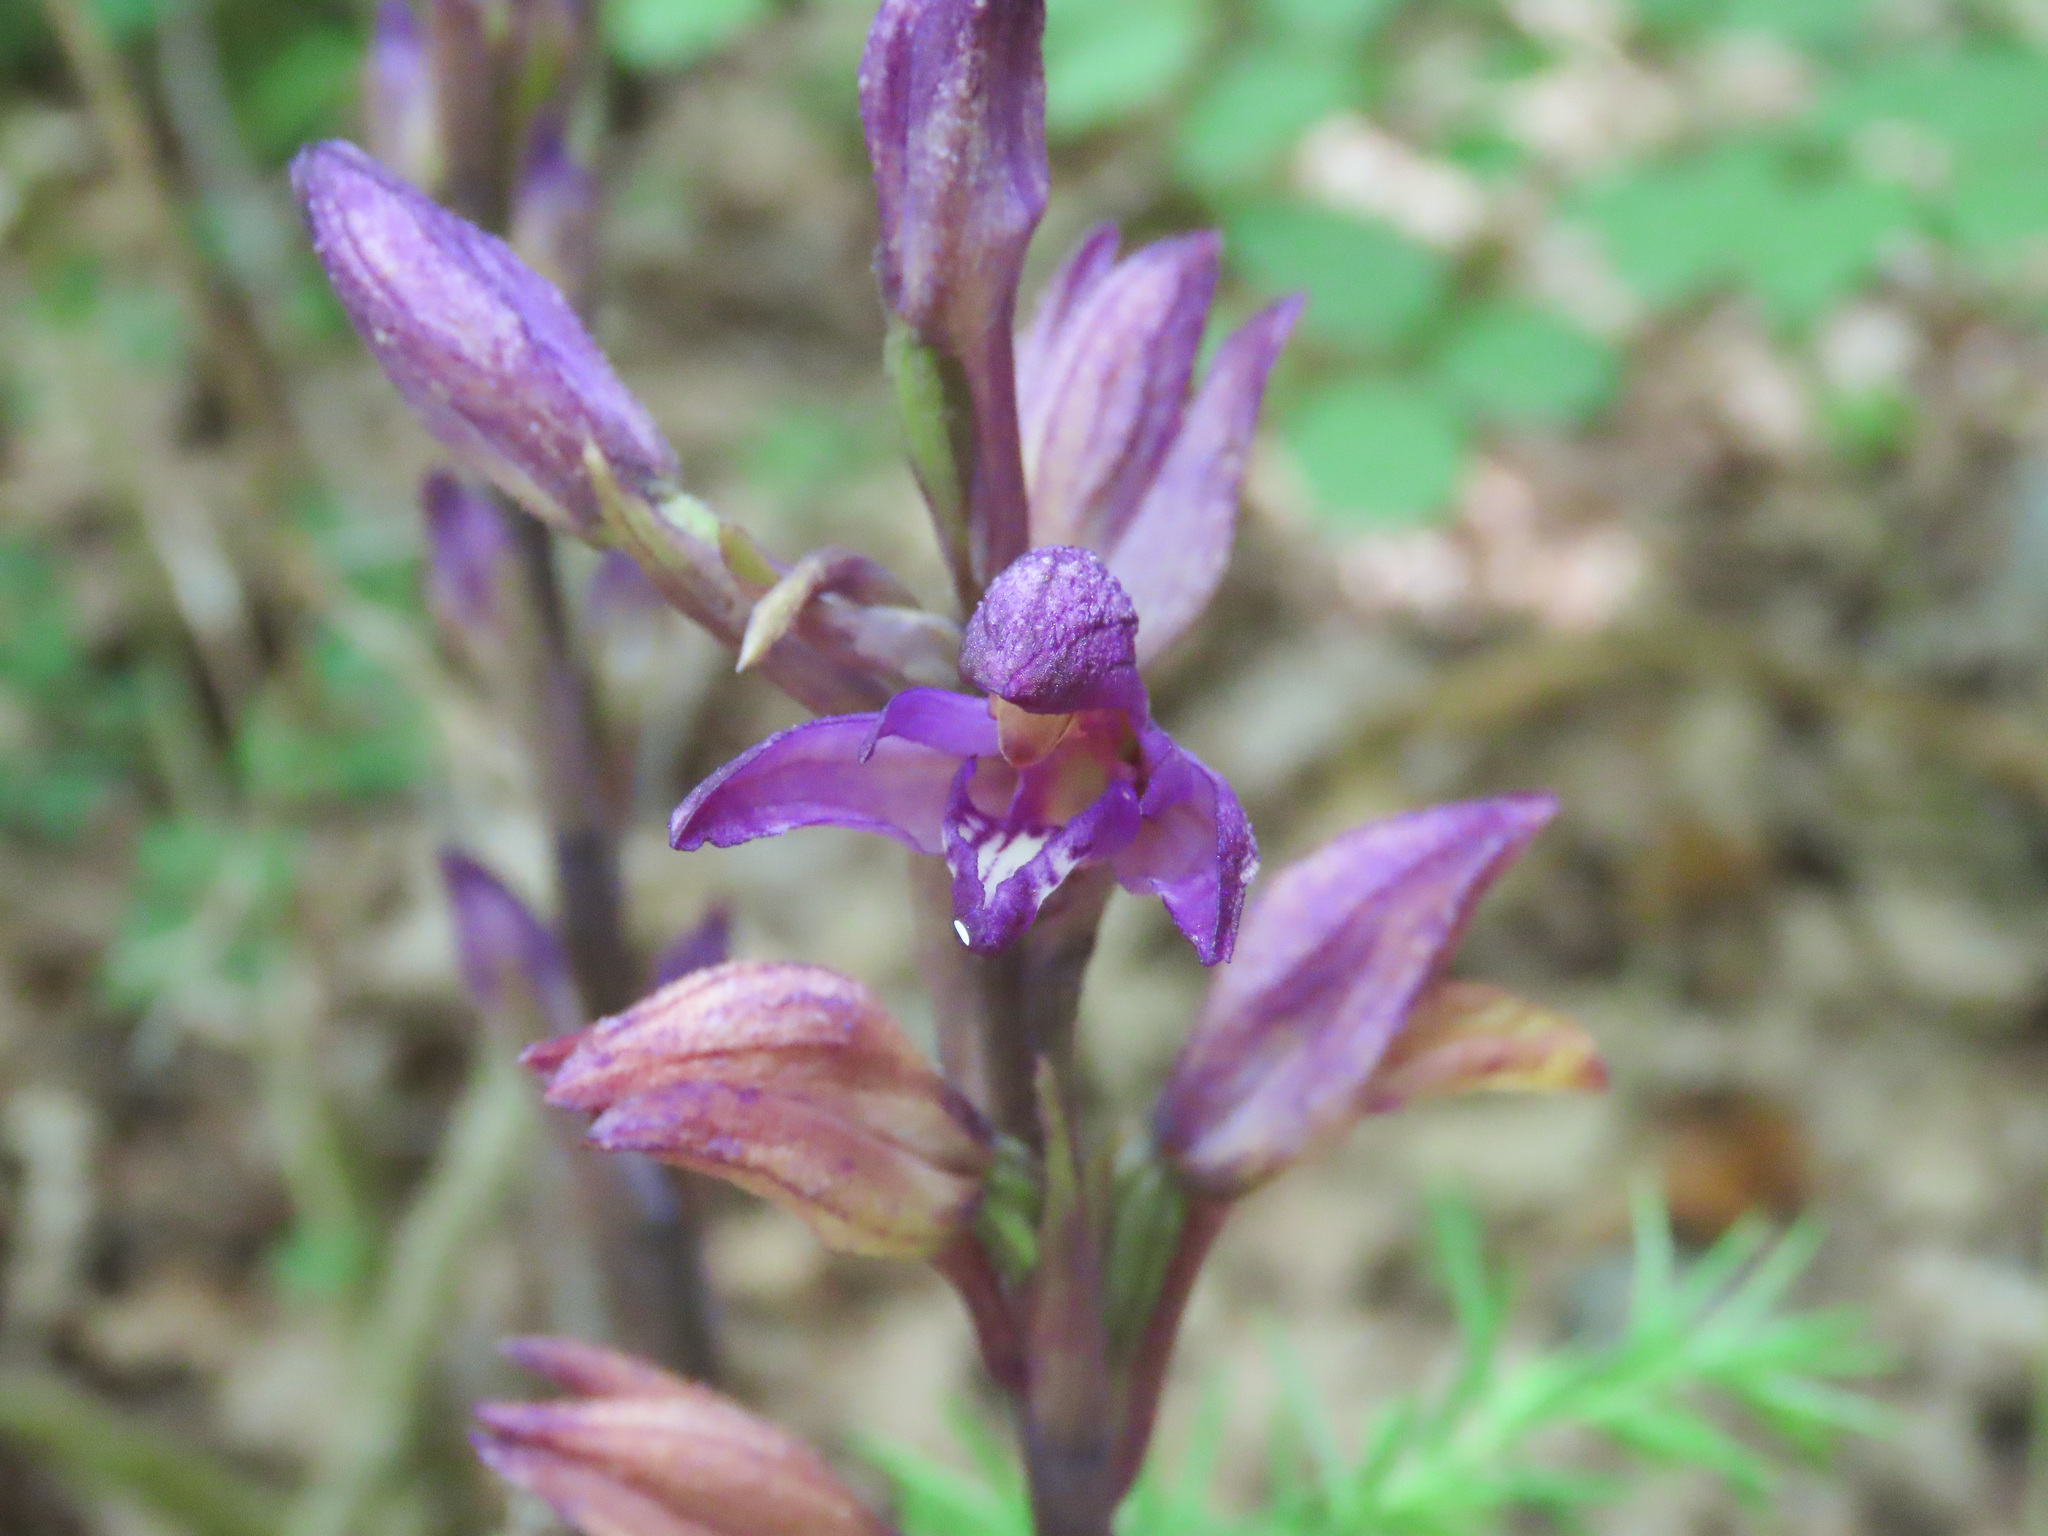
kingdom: Plantae
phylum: Tracheophyta
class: Liliopsida
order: Asparagales
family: Orchidaceae
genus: Limodorum
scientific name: Limodorum abortivum
